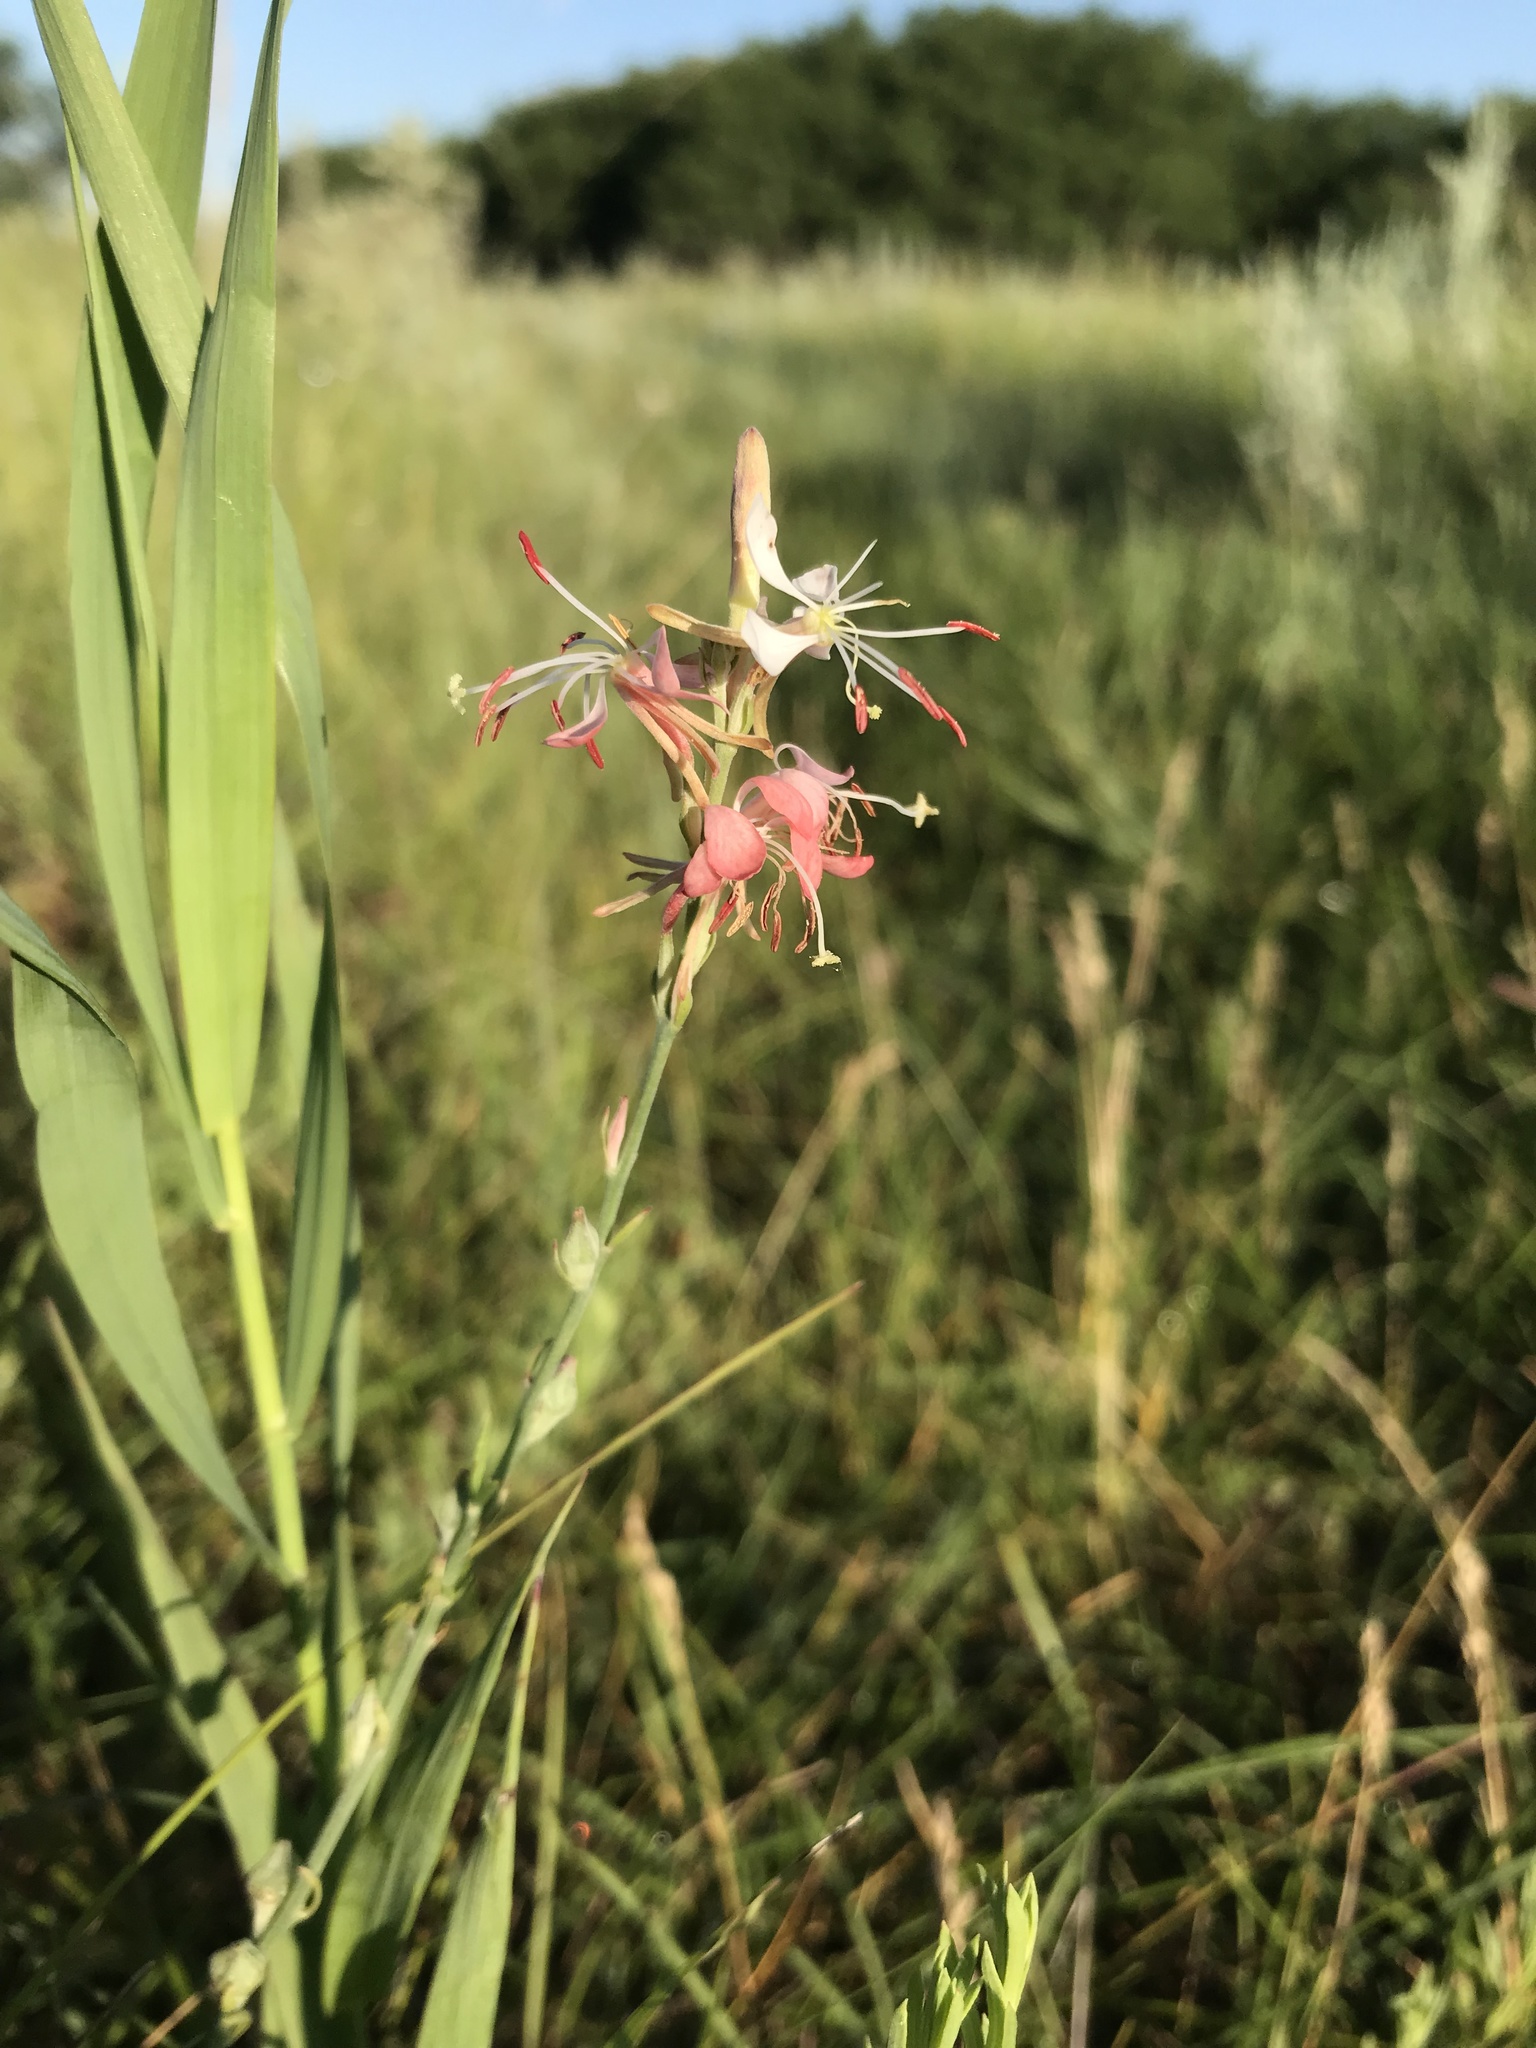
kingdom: Plantae
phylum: Tracheophyta
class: Magnoliopsida
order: Myrtales
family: Onagraceae
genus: Oenothera
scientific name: Oenothera suffrutescens
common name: Scarlet beeblossom
